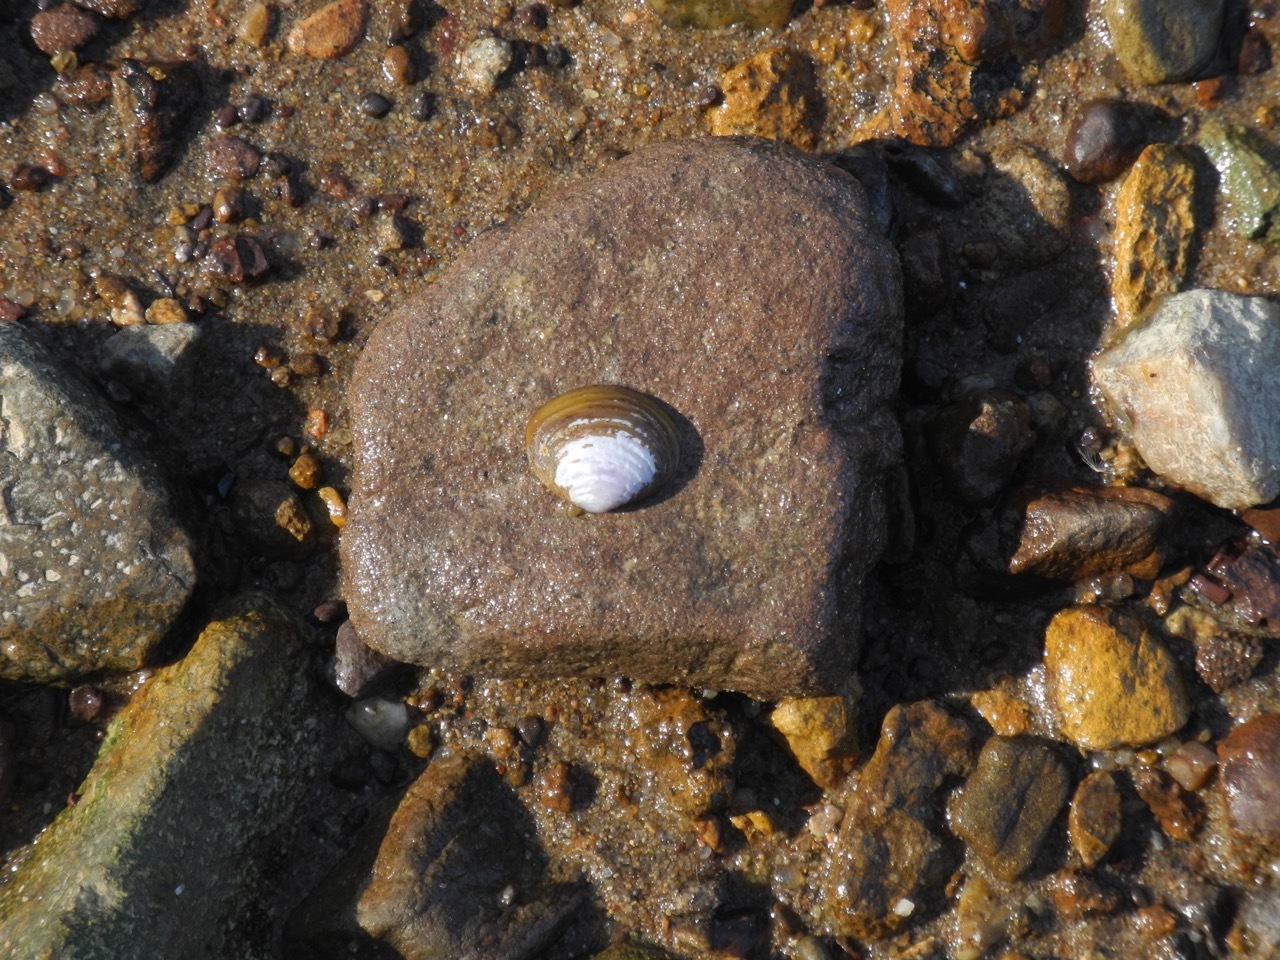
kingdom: Animalia
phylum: Mollusca
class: Bivalvia
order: Venerida
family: Cyrenidae
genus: Corbicula
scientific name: Corbicula fluminea
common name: Asian clam
